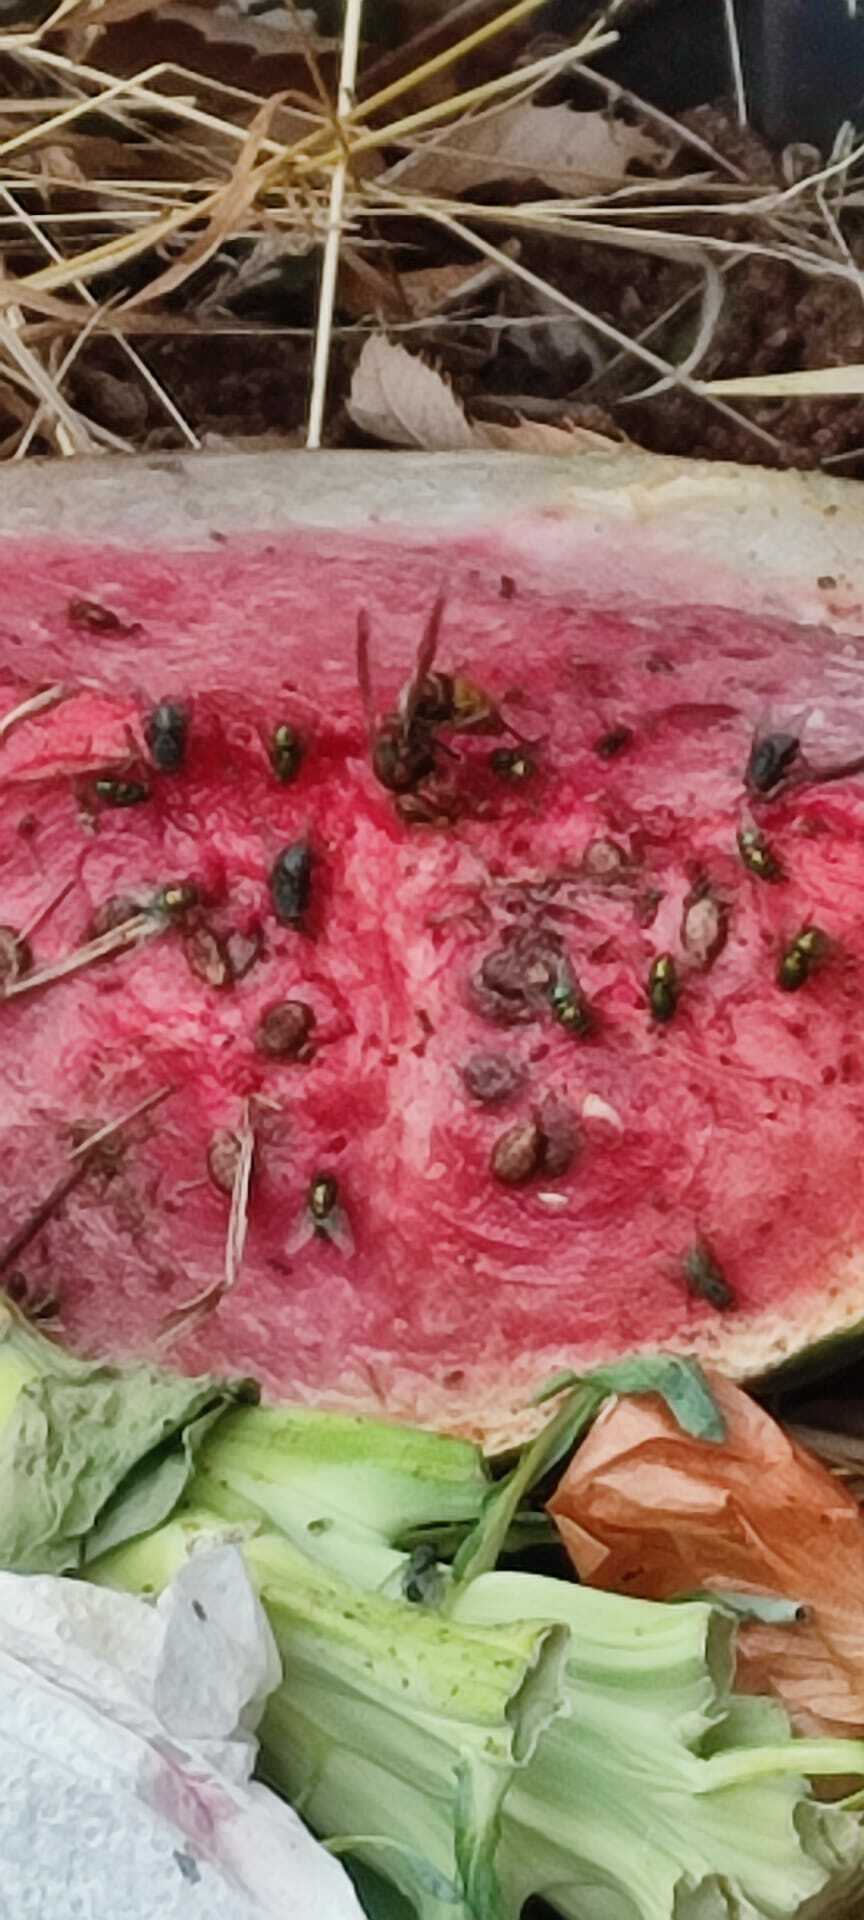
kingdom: Animalia
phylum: Arthropoda
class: Insecta
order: Hymenoptera
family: Vespidae
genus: Vespa
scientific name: Vespa crabro
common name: Hornet
